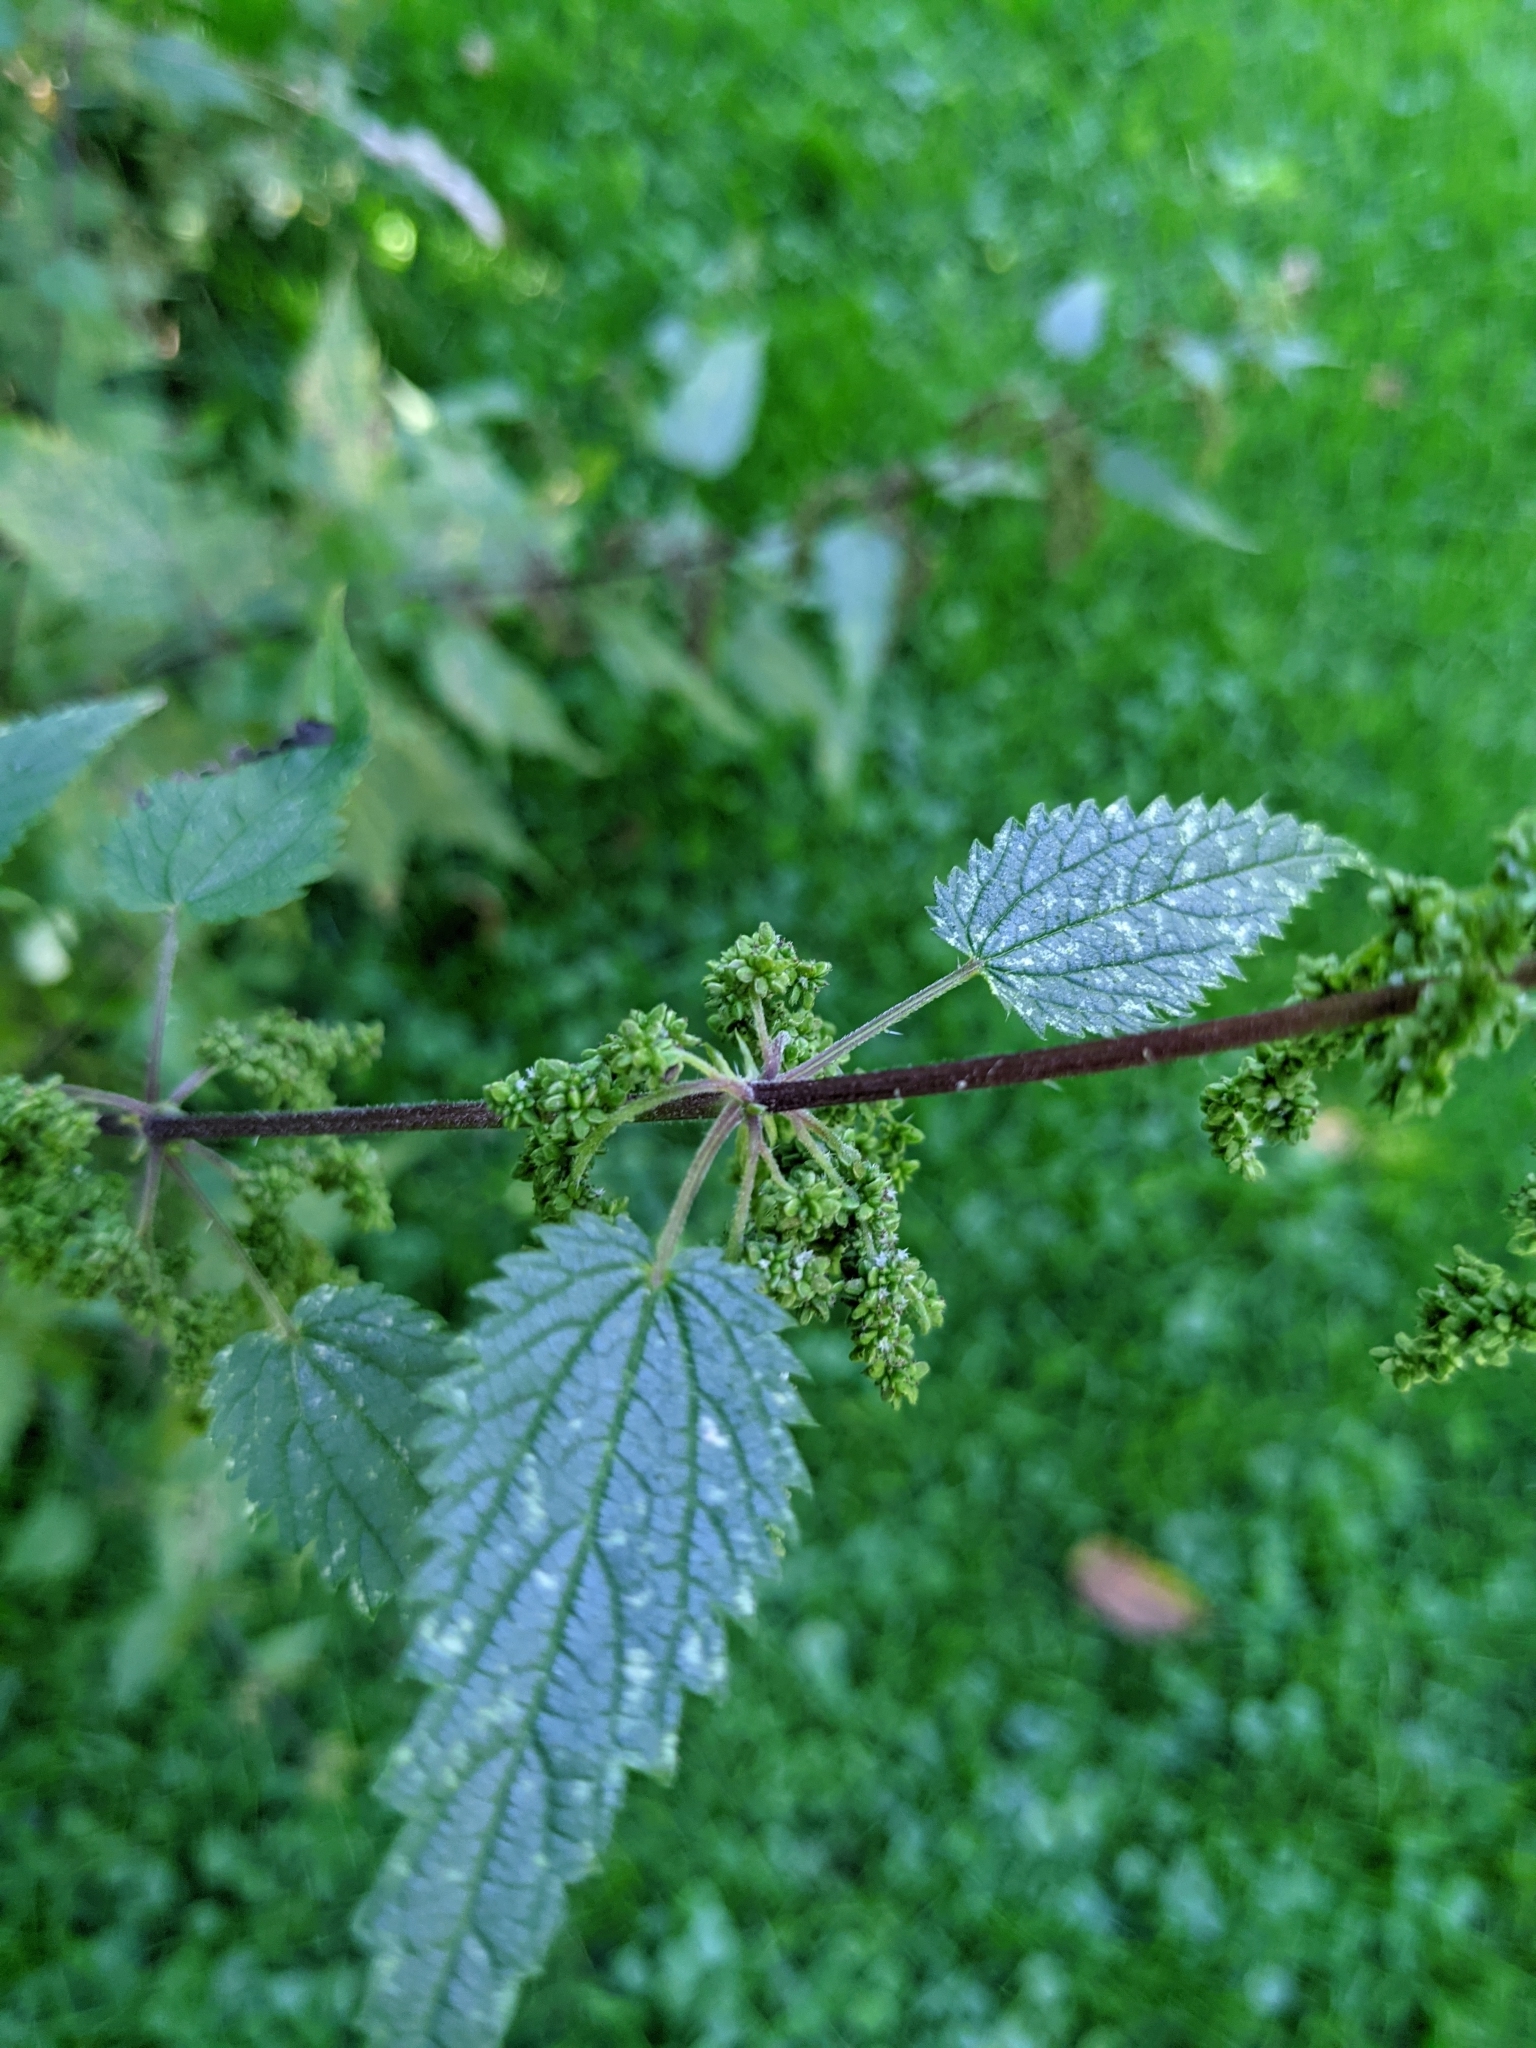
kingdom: Plantae
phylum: Tracheophyta
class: Magnoliopsida
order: Rosales
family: Urticaceae
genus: Urtica
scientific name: Urtica dioica
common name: Common nettle
